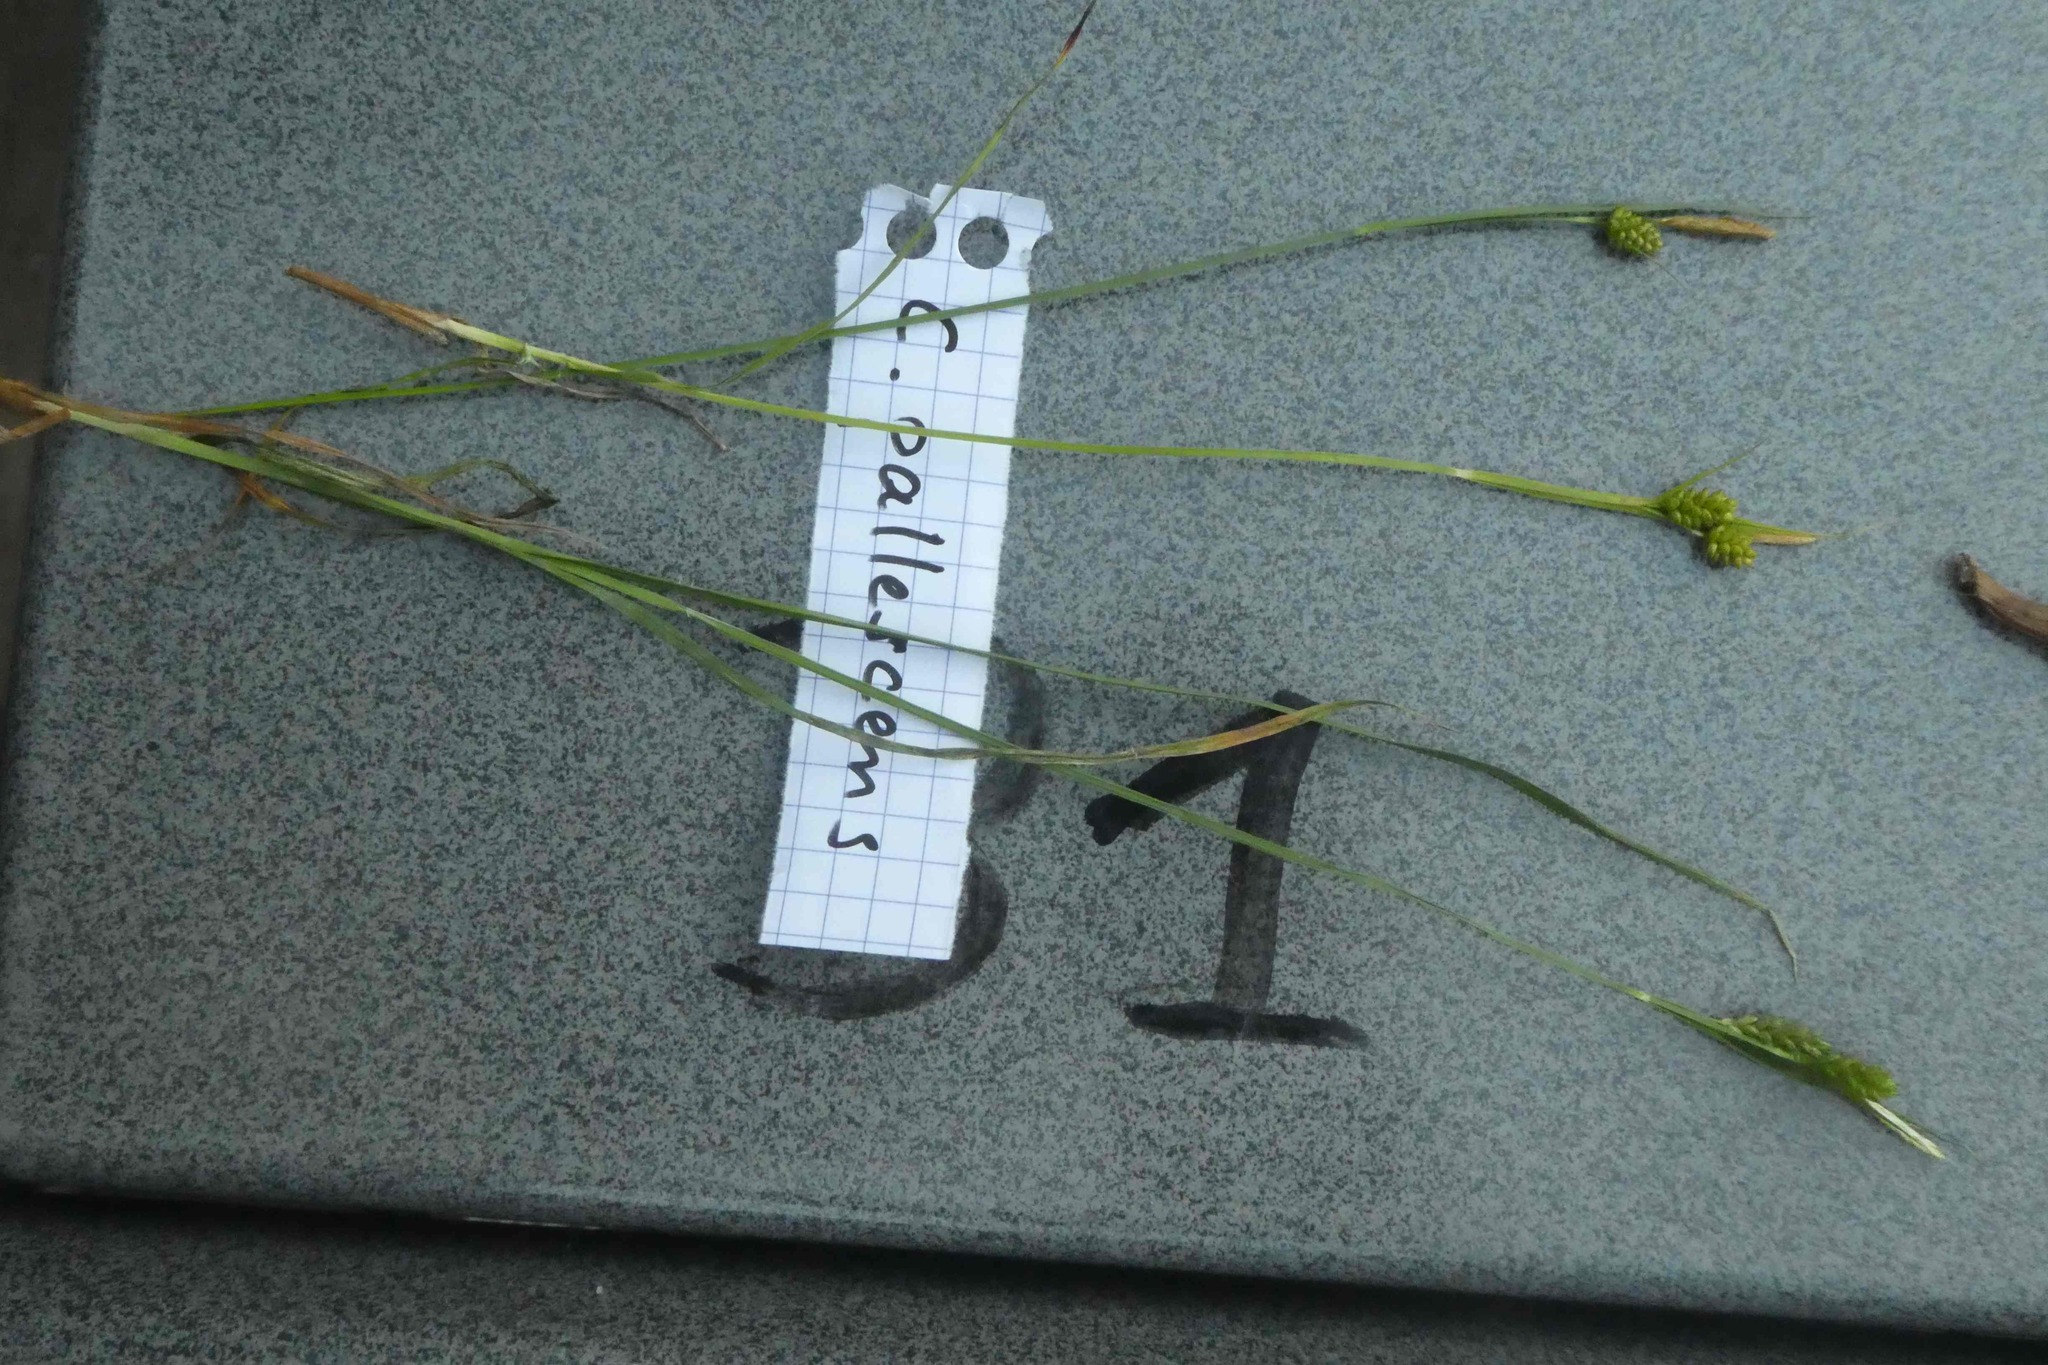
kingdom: Plantae
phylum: Tracheophyta
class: Liliopsida
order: Poales
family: Cyperaceae
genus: Carex
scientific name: Carex pallescens
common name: Pale sedge
